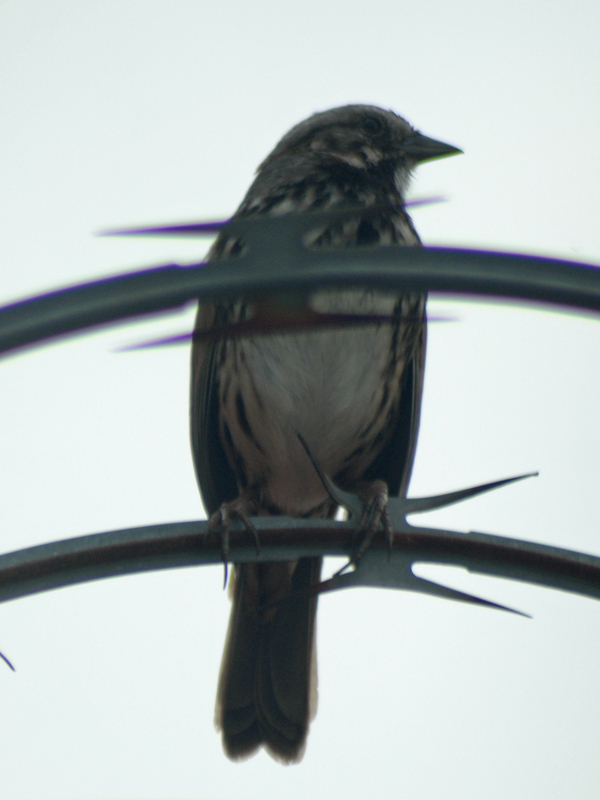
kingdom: Animalia
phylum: Chordata
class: Aves
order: Passeriformes
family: Passerellidae
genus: Melospiza
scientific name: Melospiza melodia
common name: Song sparrow
